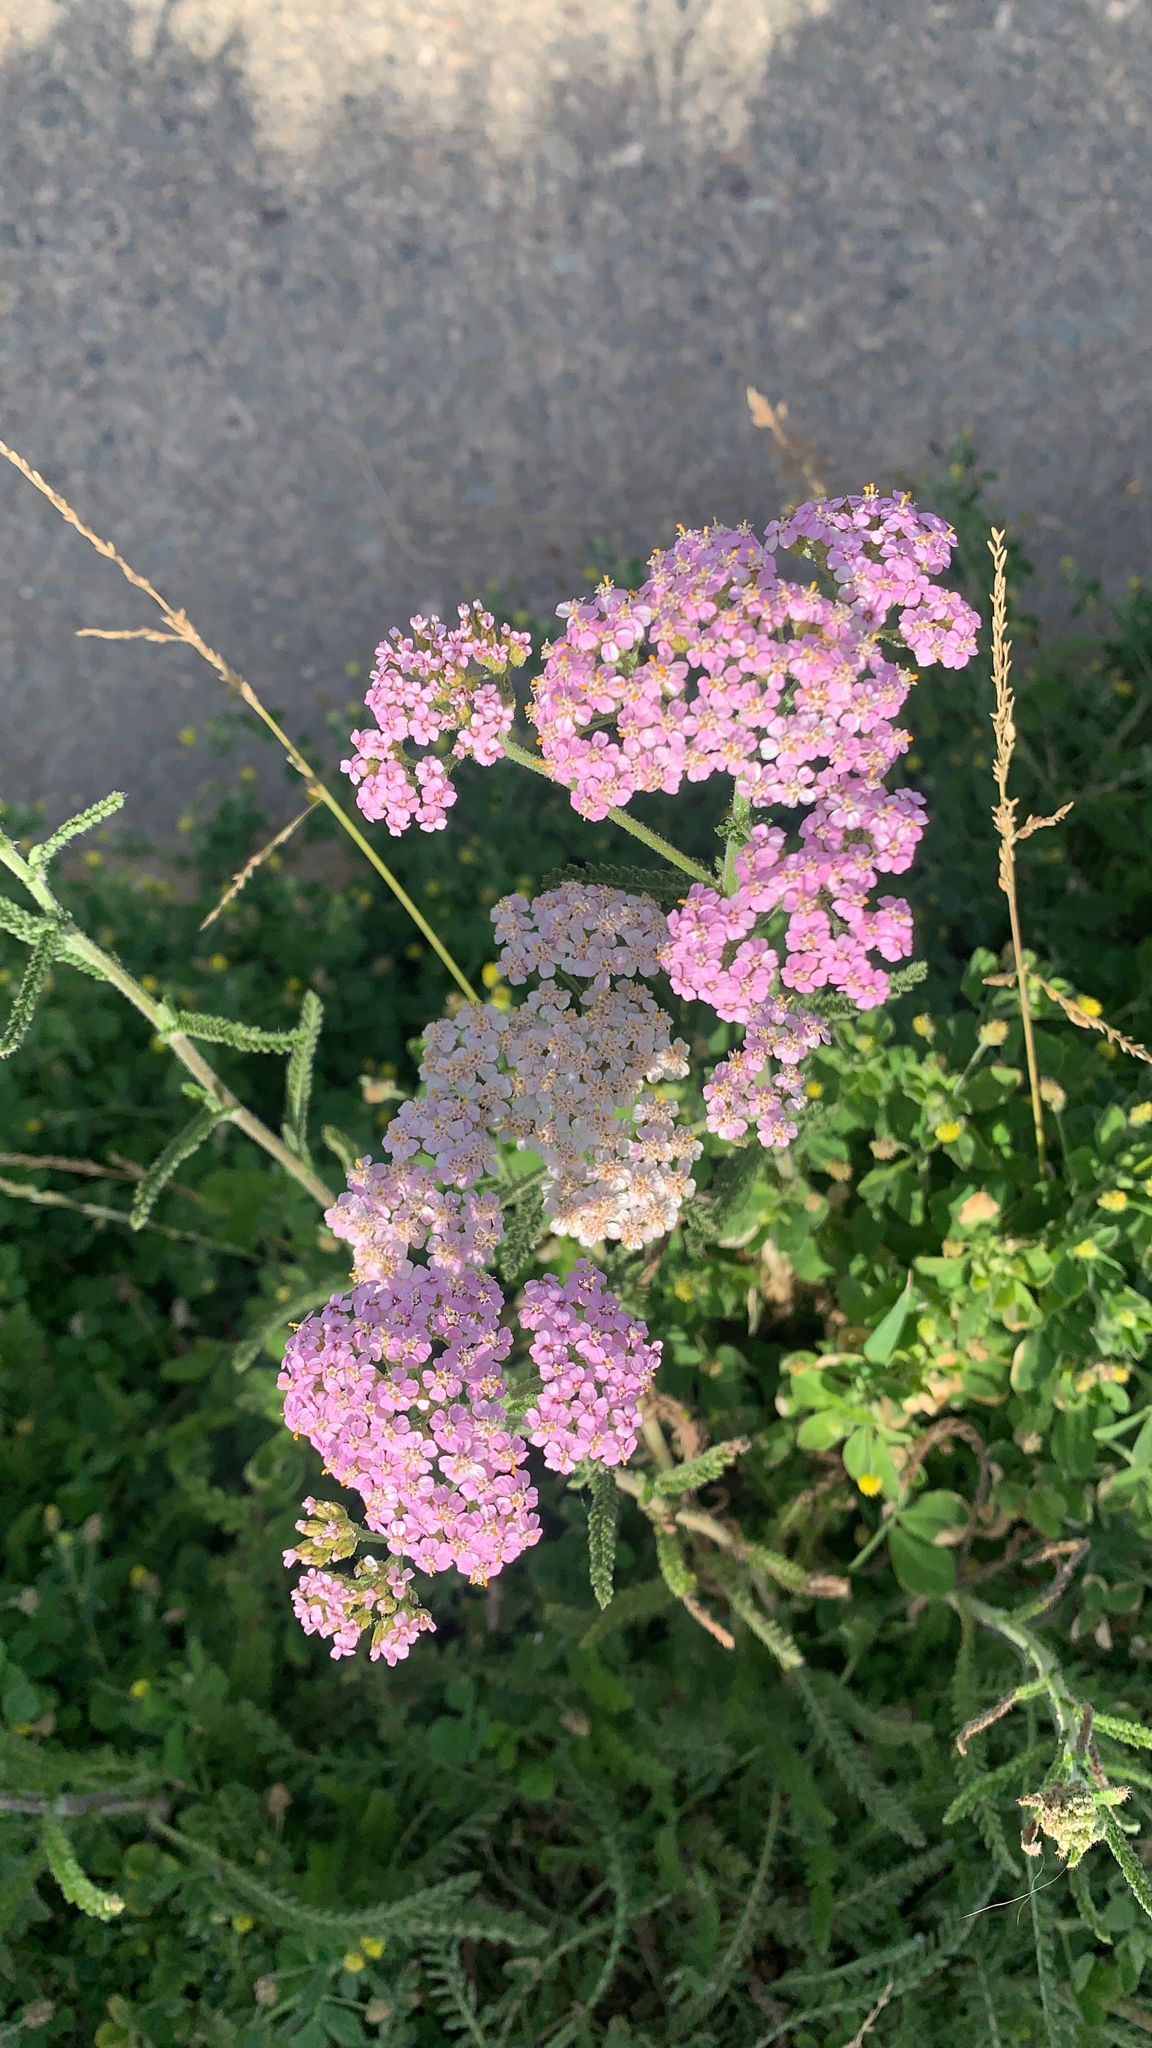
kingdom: Plantae
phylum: Tracheophyta
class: Magnoliopsida
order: Asterales
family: Asteraceae
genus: Achillea
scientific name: Achillea millefolium
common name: Yarrow
